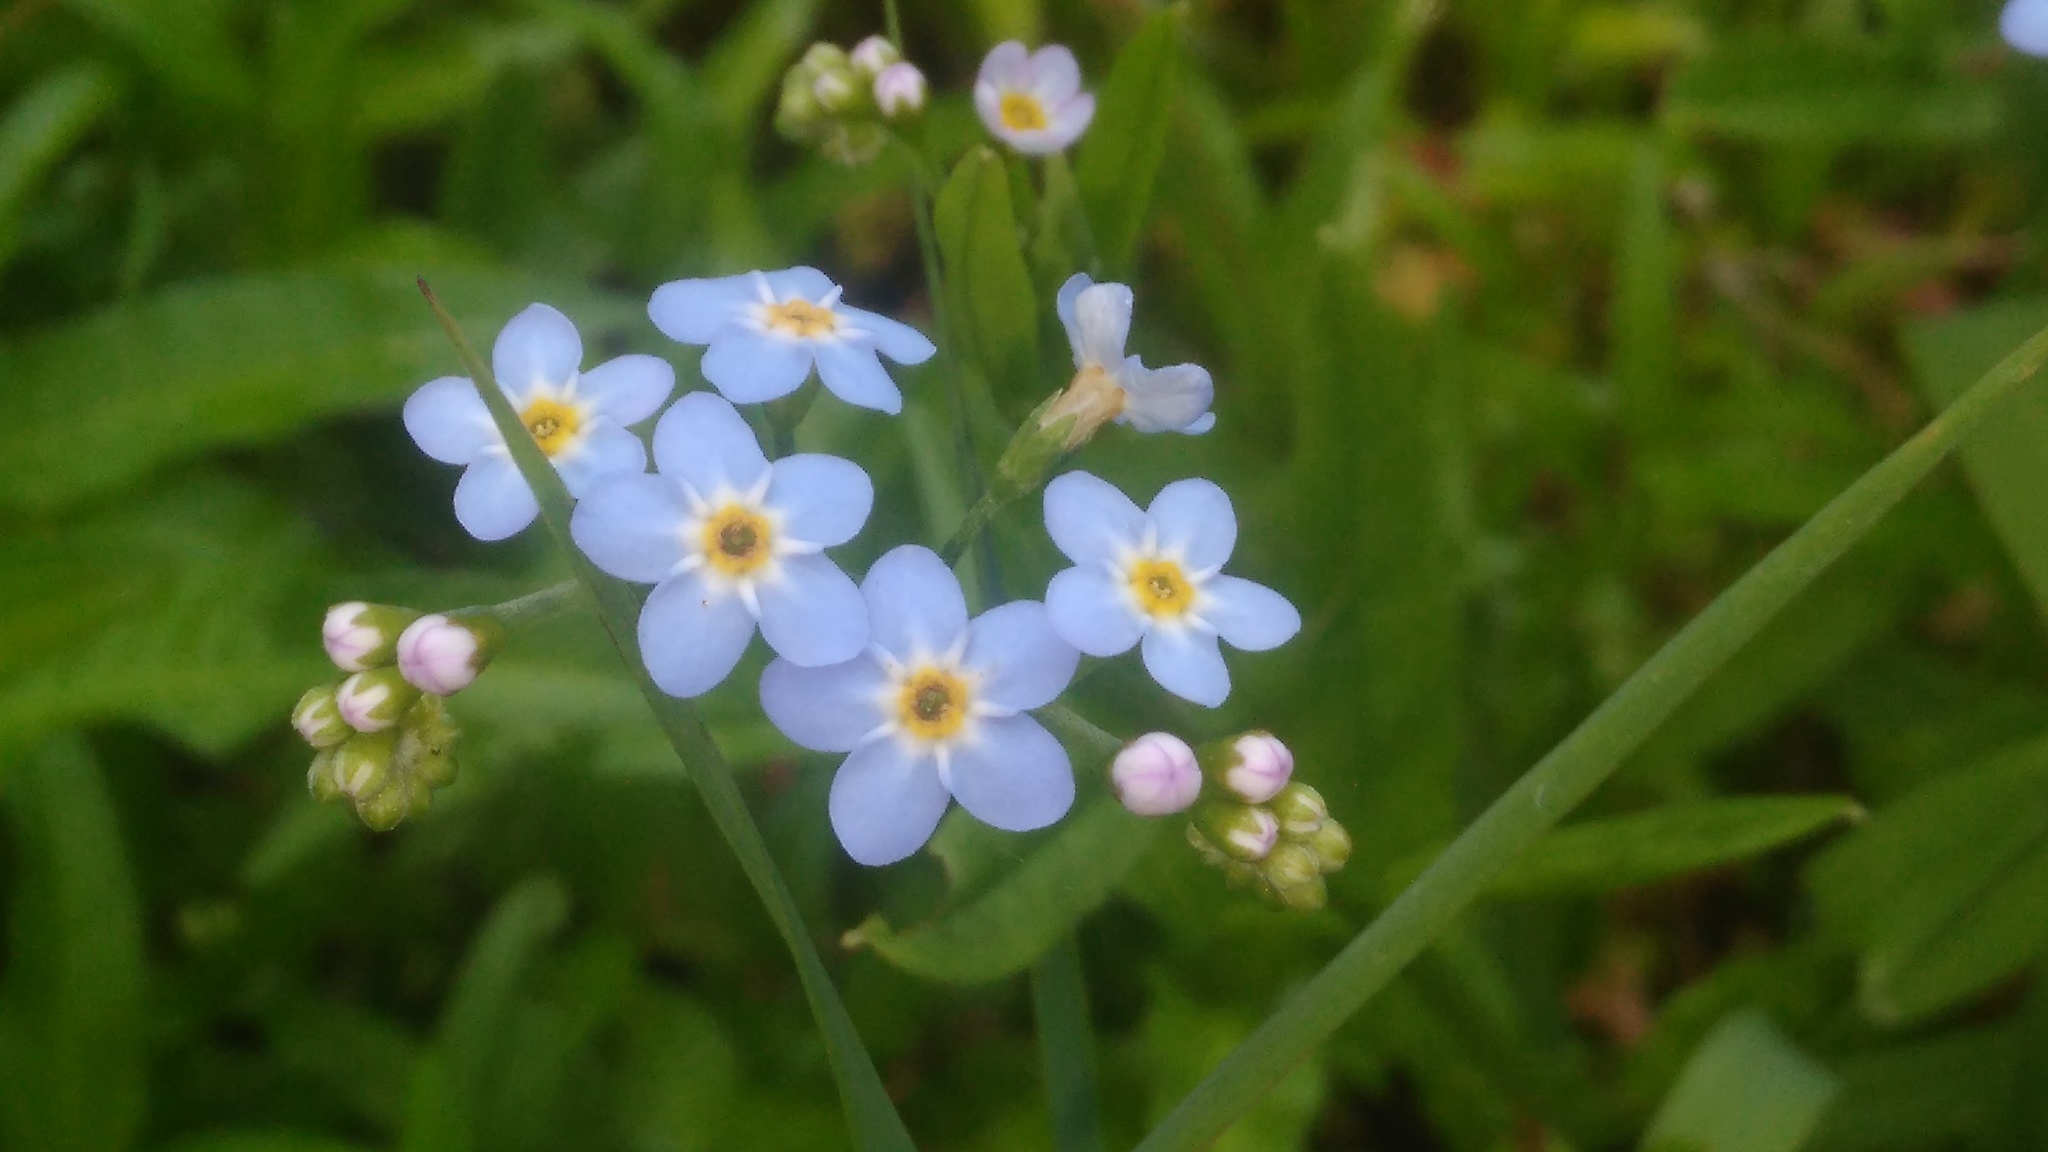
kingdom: Plantae
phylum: Tracheophyta
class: Magnoliopsida
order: Boraginales
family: Boraginaceae
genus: Myosotis
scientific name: Myosotis scorpioides
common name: Water forget-me-not
